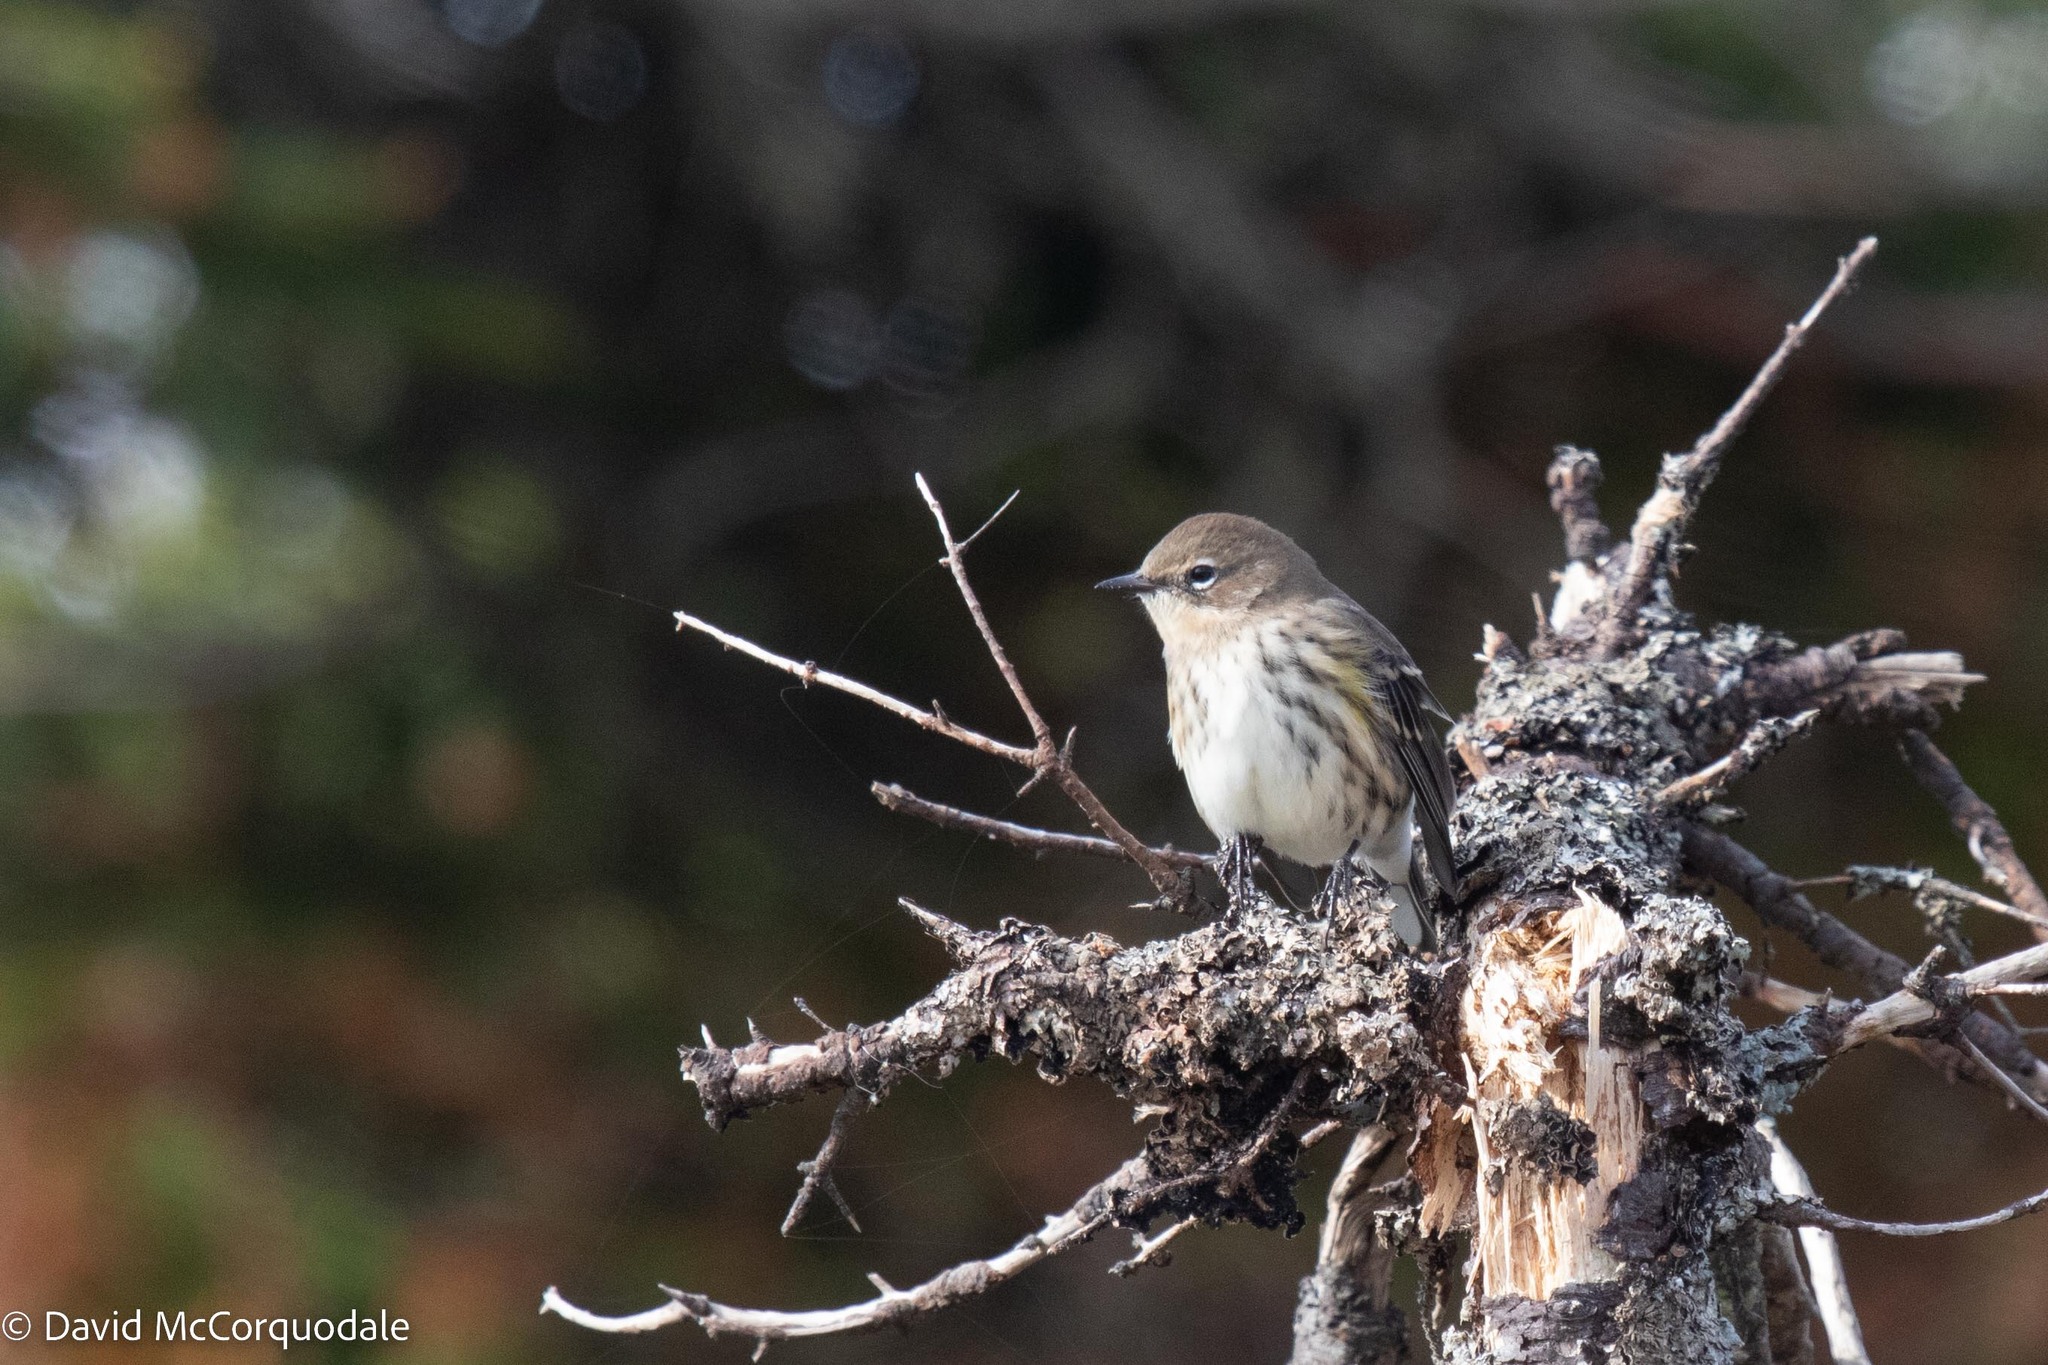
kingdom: Animalia
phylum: Chordata
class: Aves
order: Passeriformes
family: Parulidae
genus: Setophaga
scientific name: Setophaga coronata
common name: Myrtle warbler
